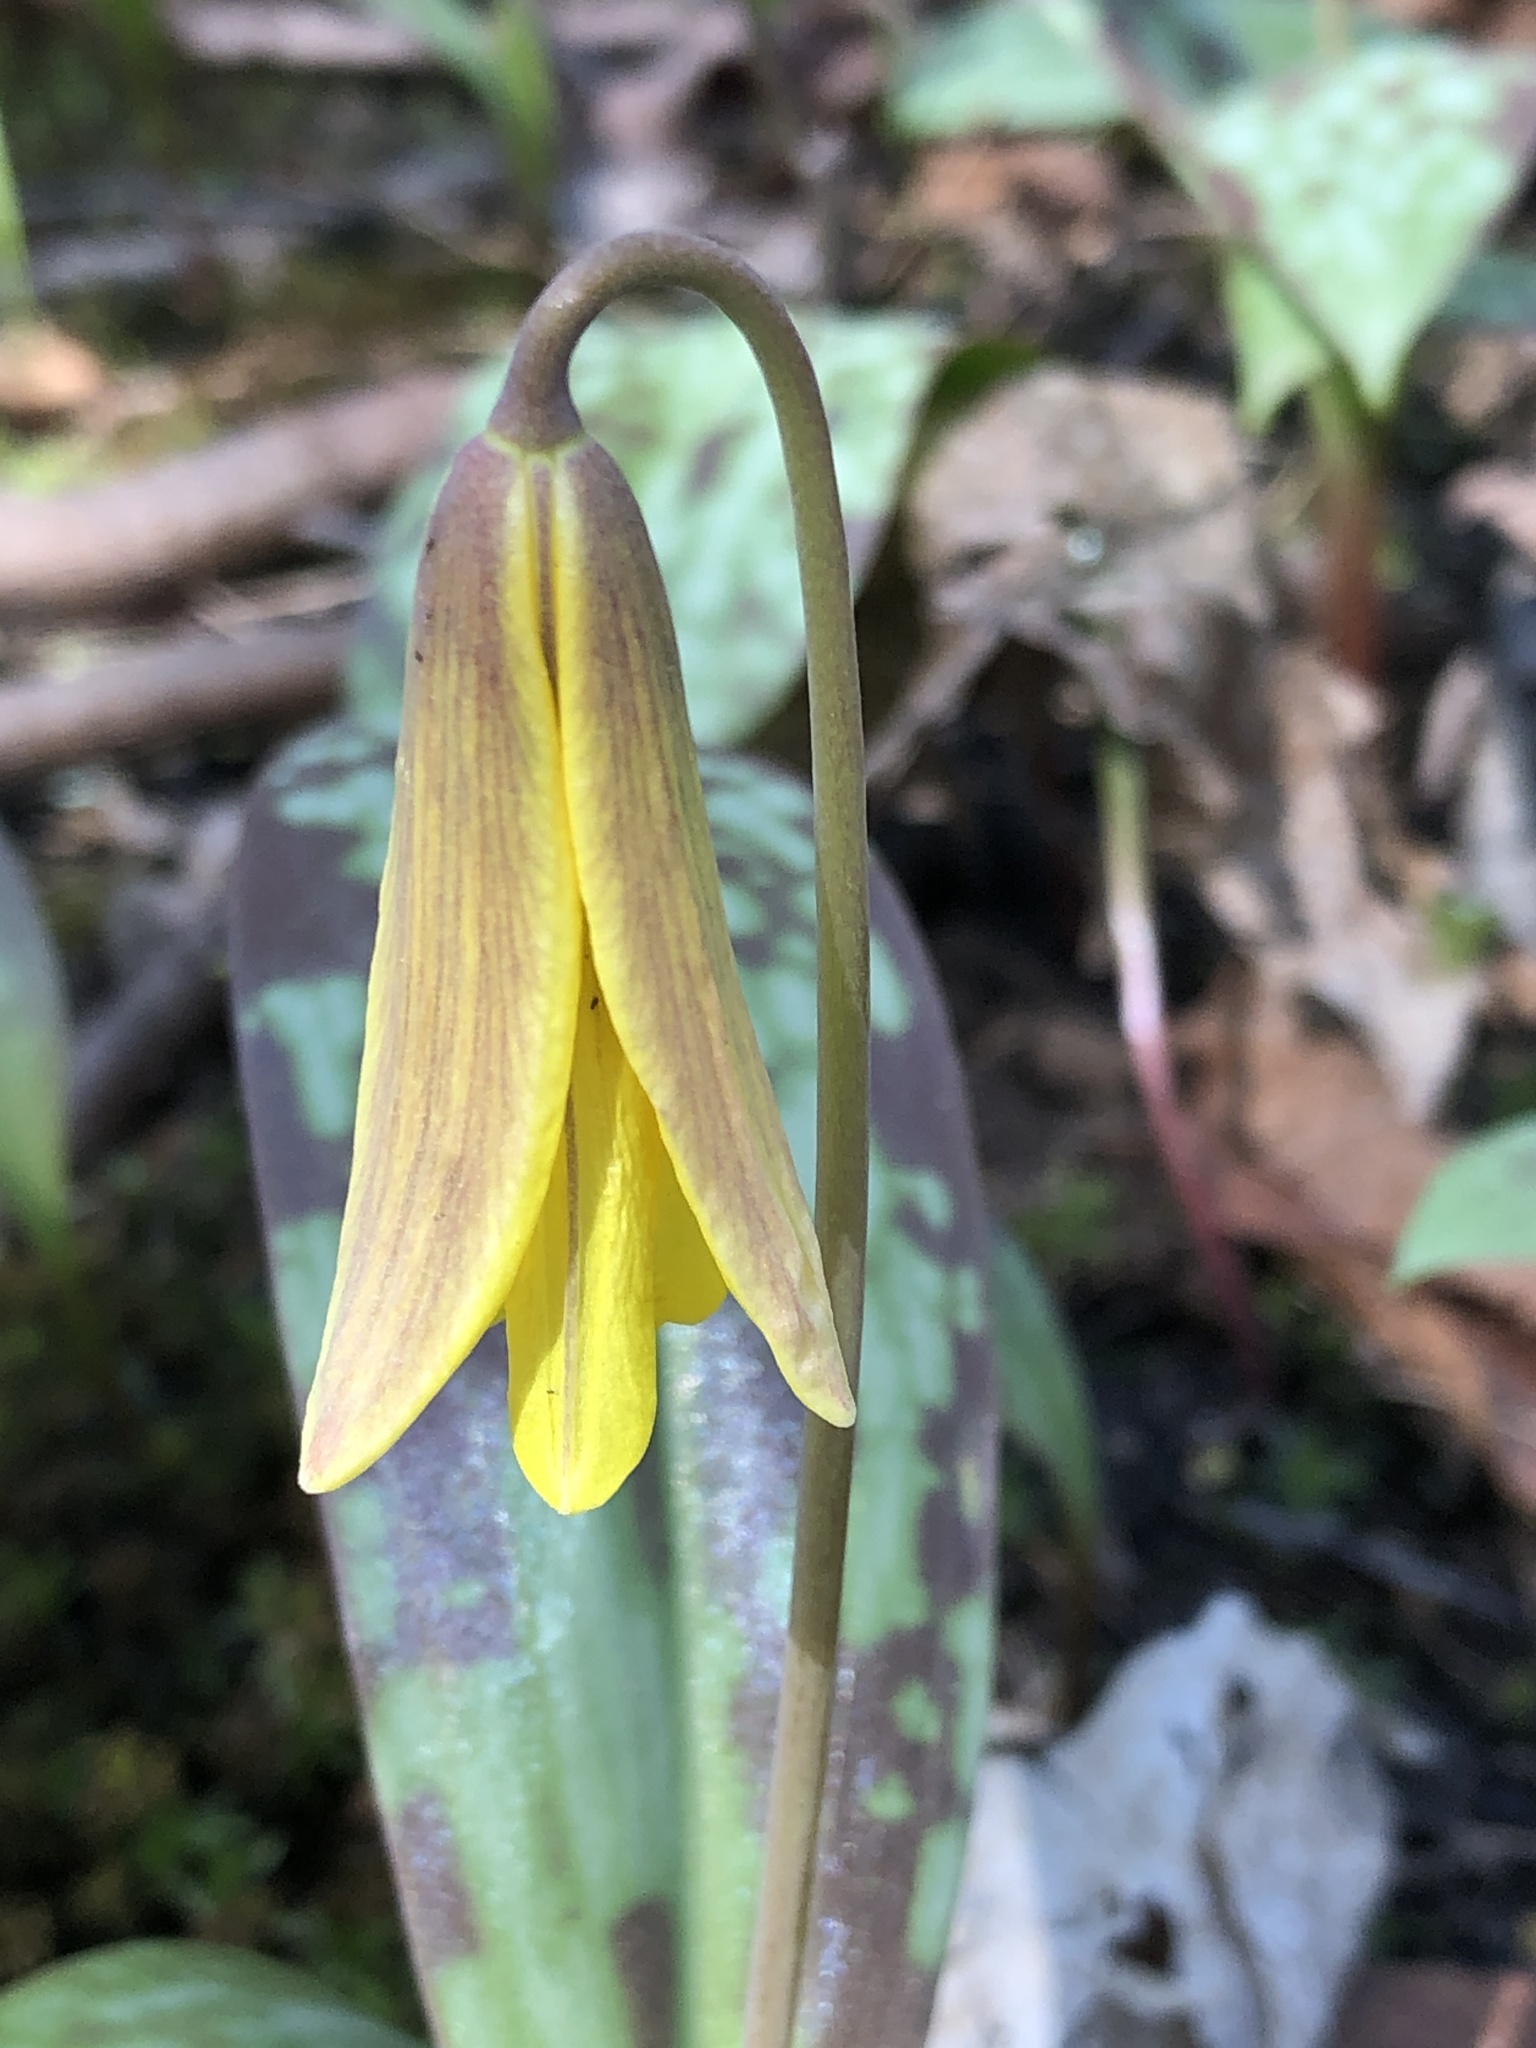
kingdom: Plantae
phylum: Tracheophyta
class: Liliopsida
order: Liliales
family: Liliaceae
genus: Erythronium
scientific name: Erythronium americanum
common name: Yellow adder's-tongue
